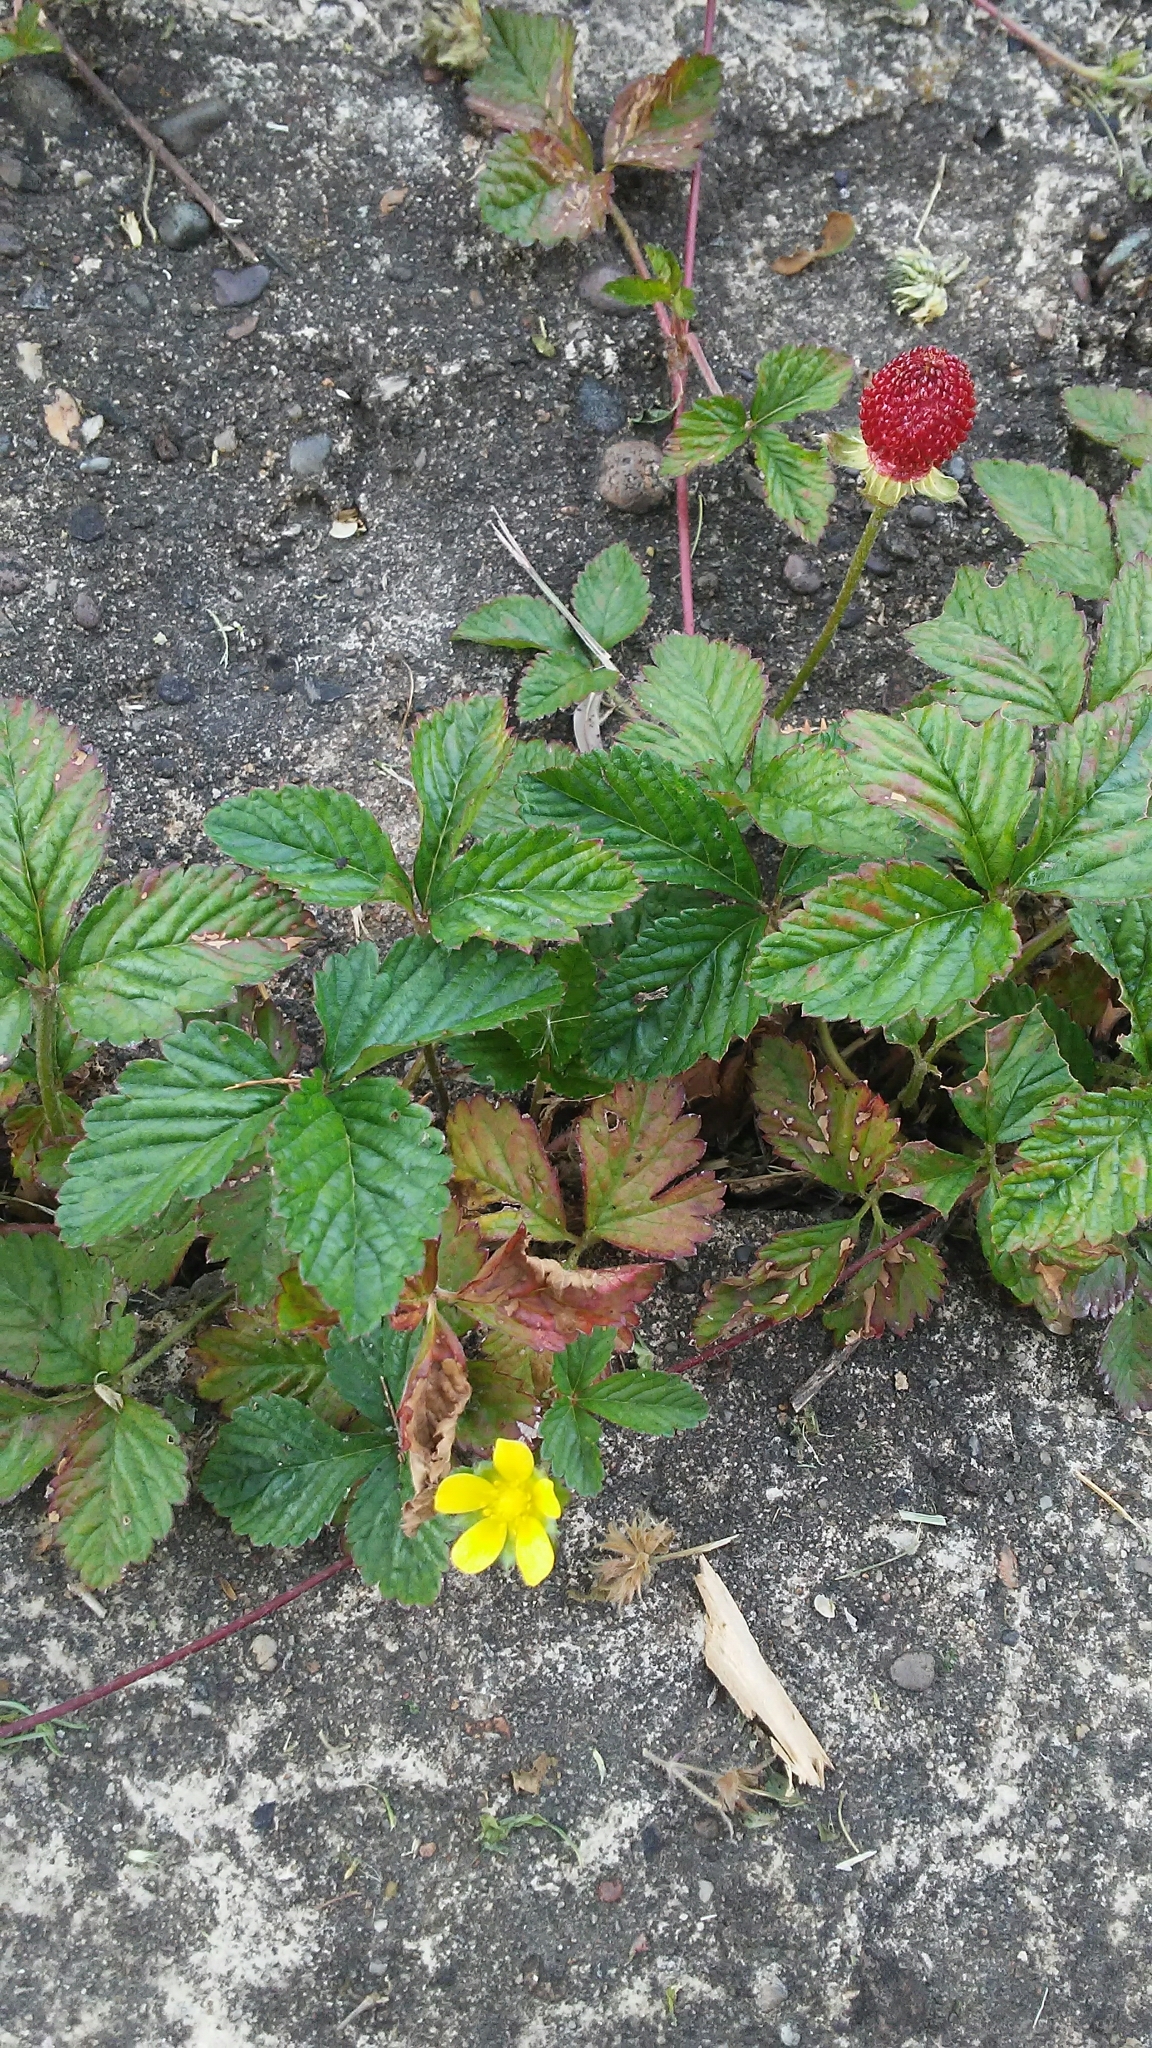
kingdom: Plantae
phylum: Tracheophyta
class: Magnoliopsida
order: Rosales
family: Rosaceae
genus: Potentilla
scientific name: Potentilla indica
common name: Yellow-flowered strawberry
